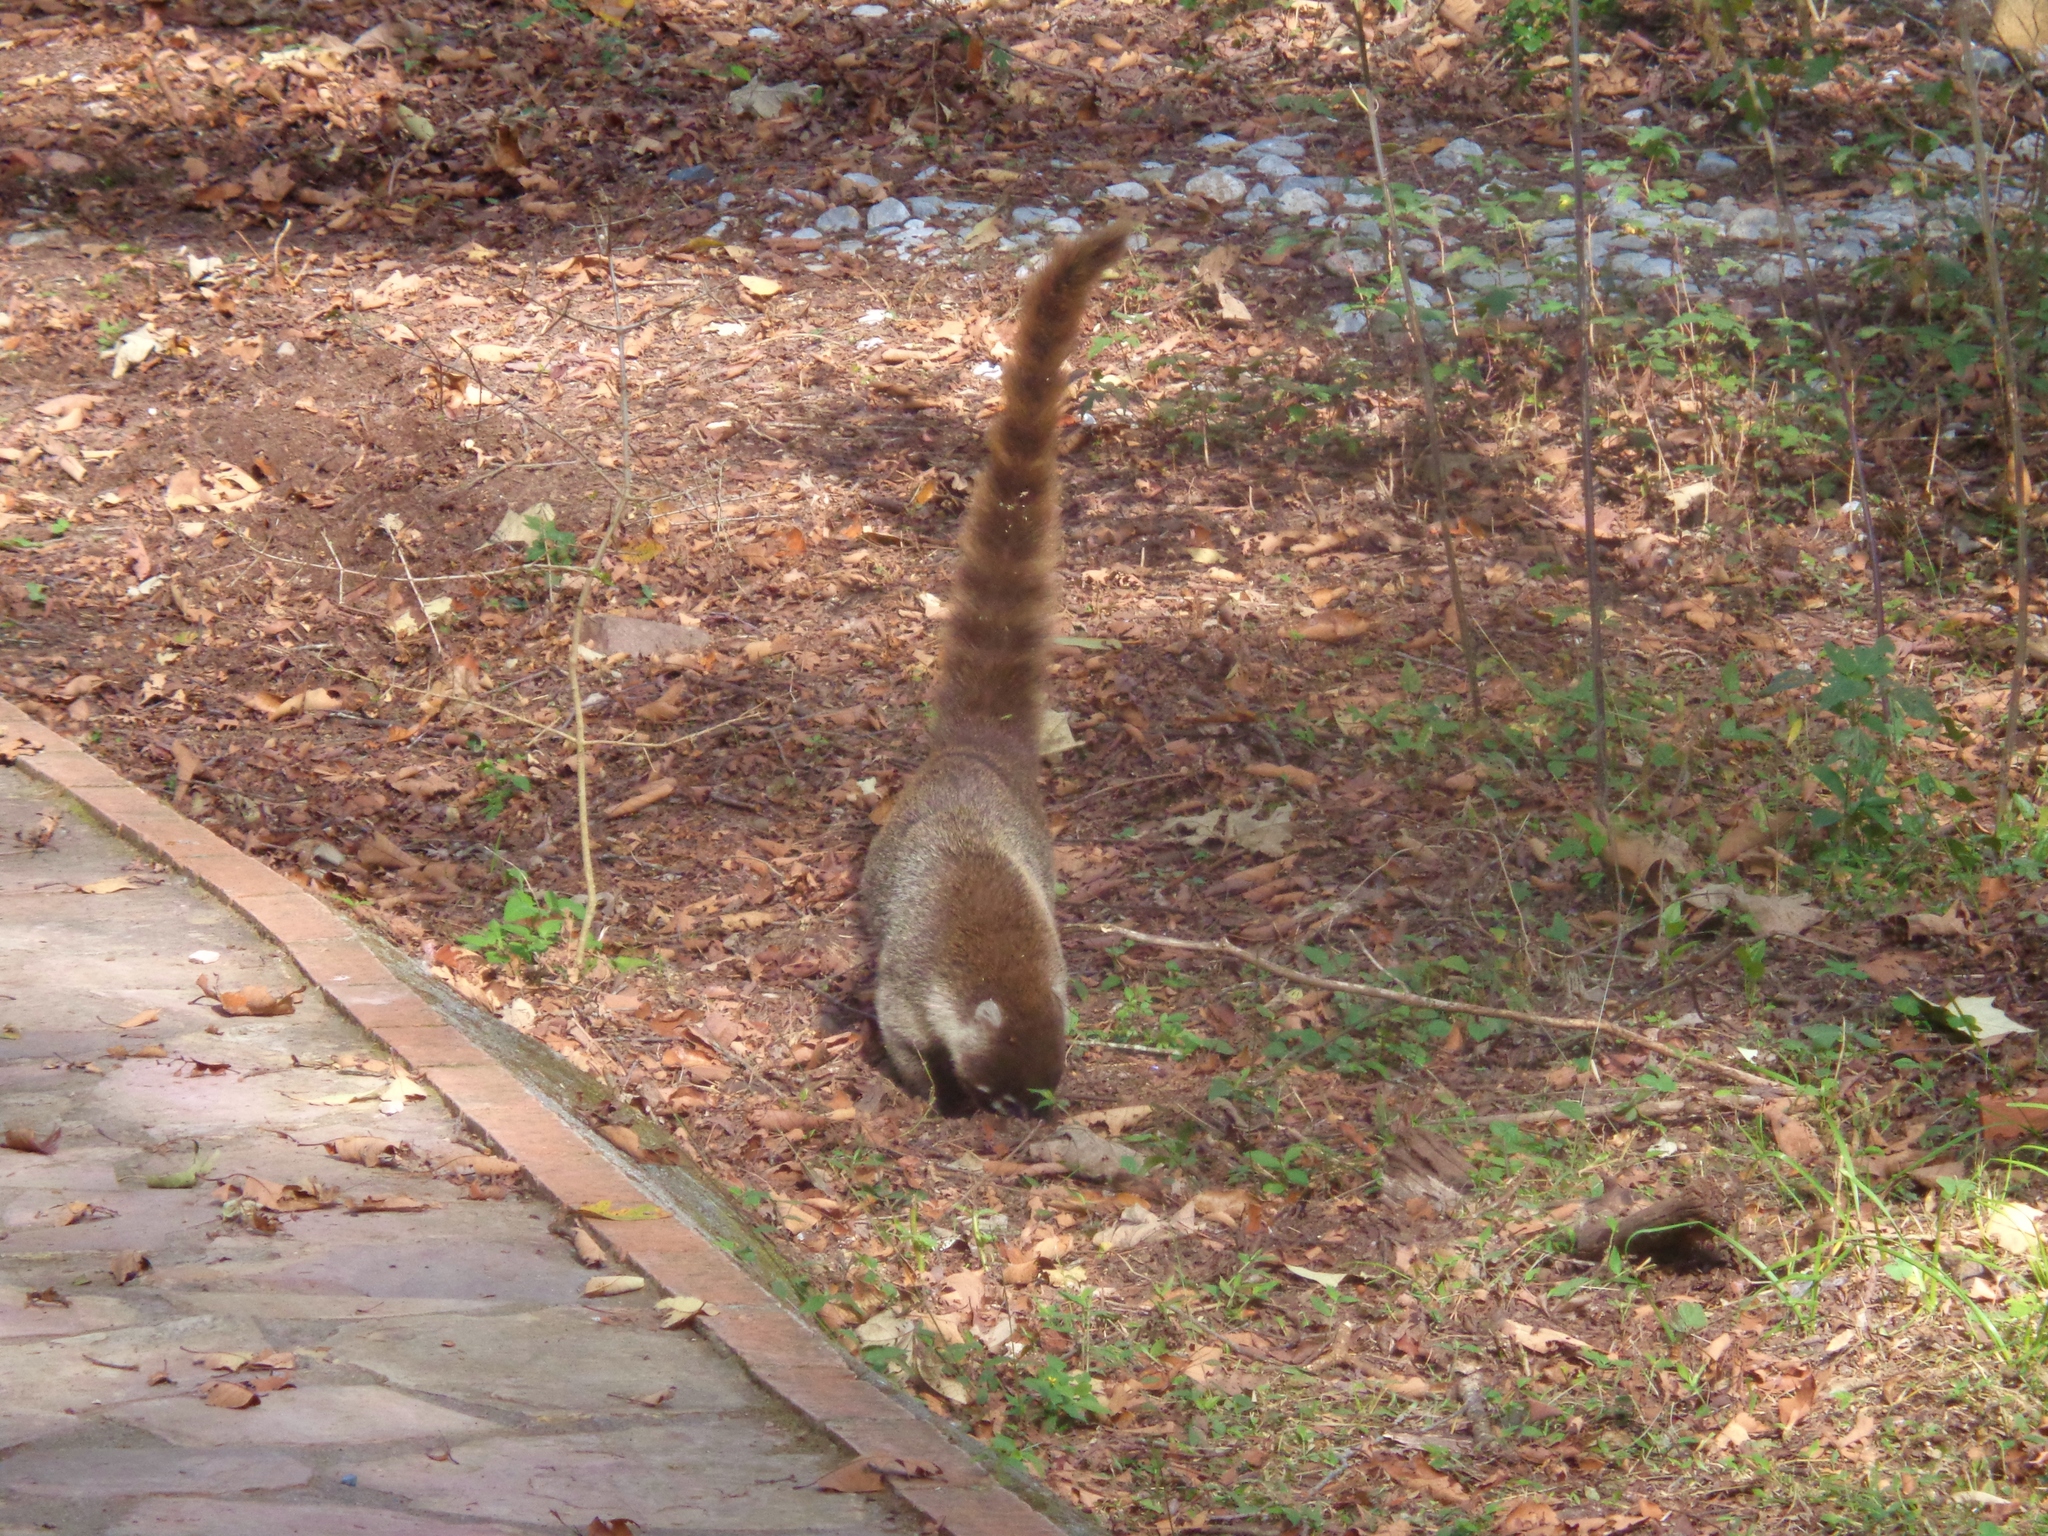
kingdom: Animalia
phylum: Chordata
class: Mammalia
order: Carnivora
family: Procyonidae
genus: Nasua
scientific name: Nasua narica
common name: White-nosed coati
